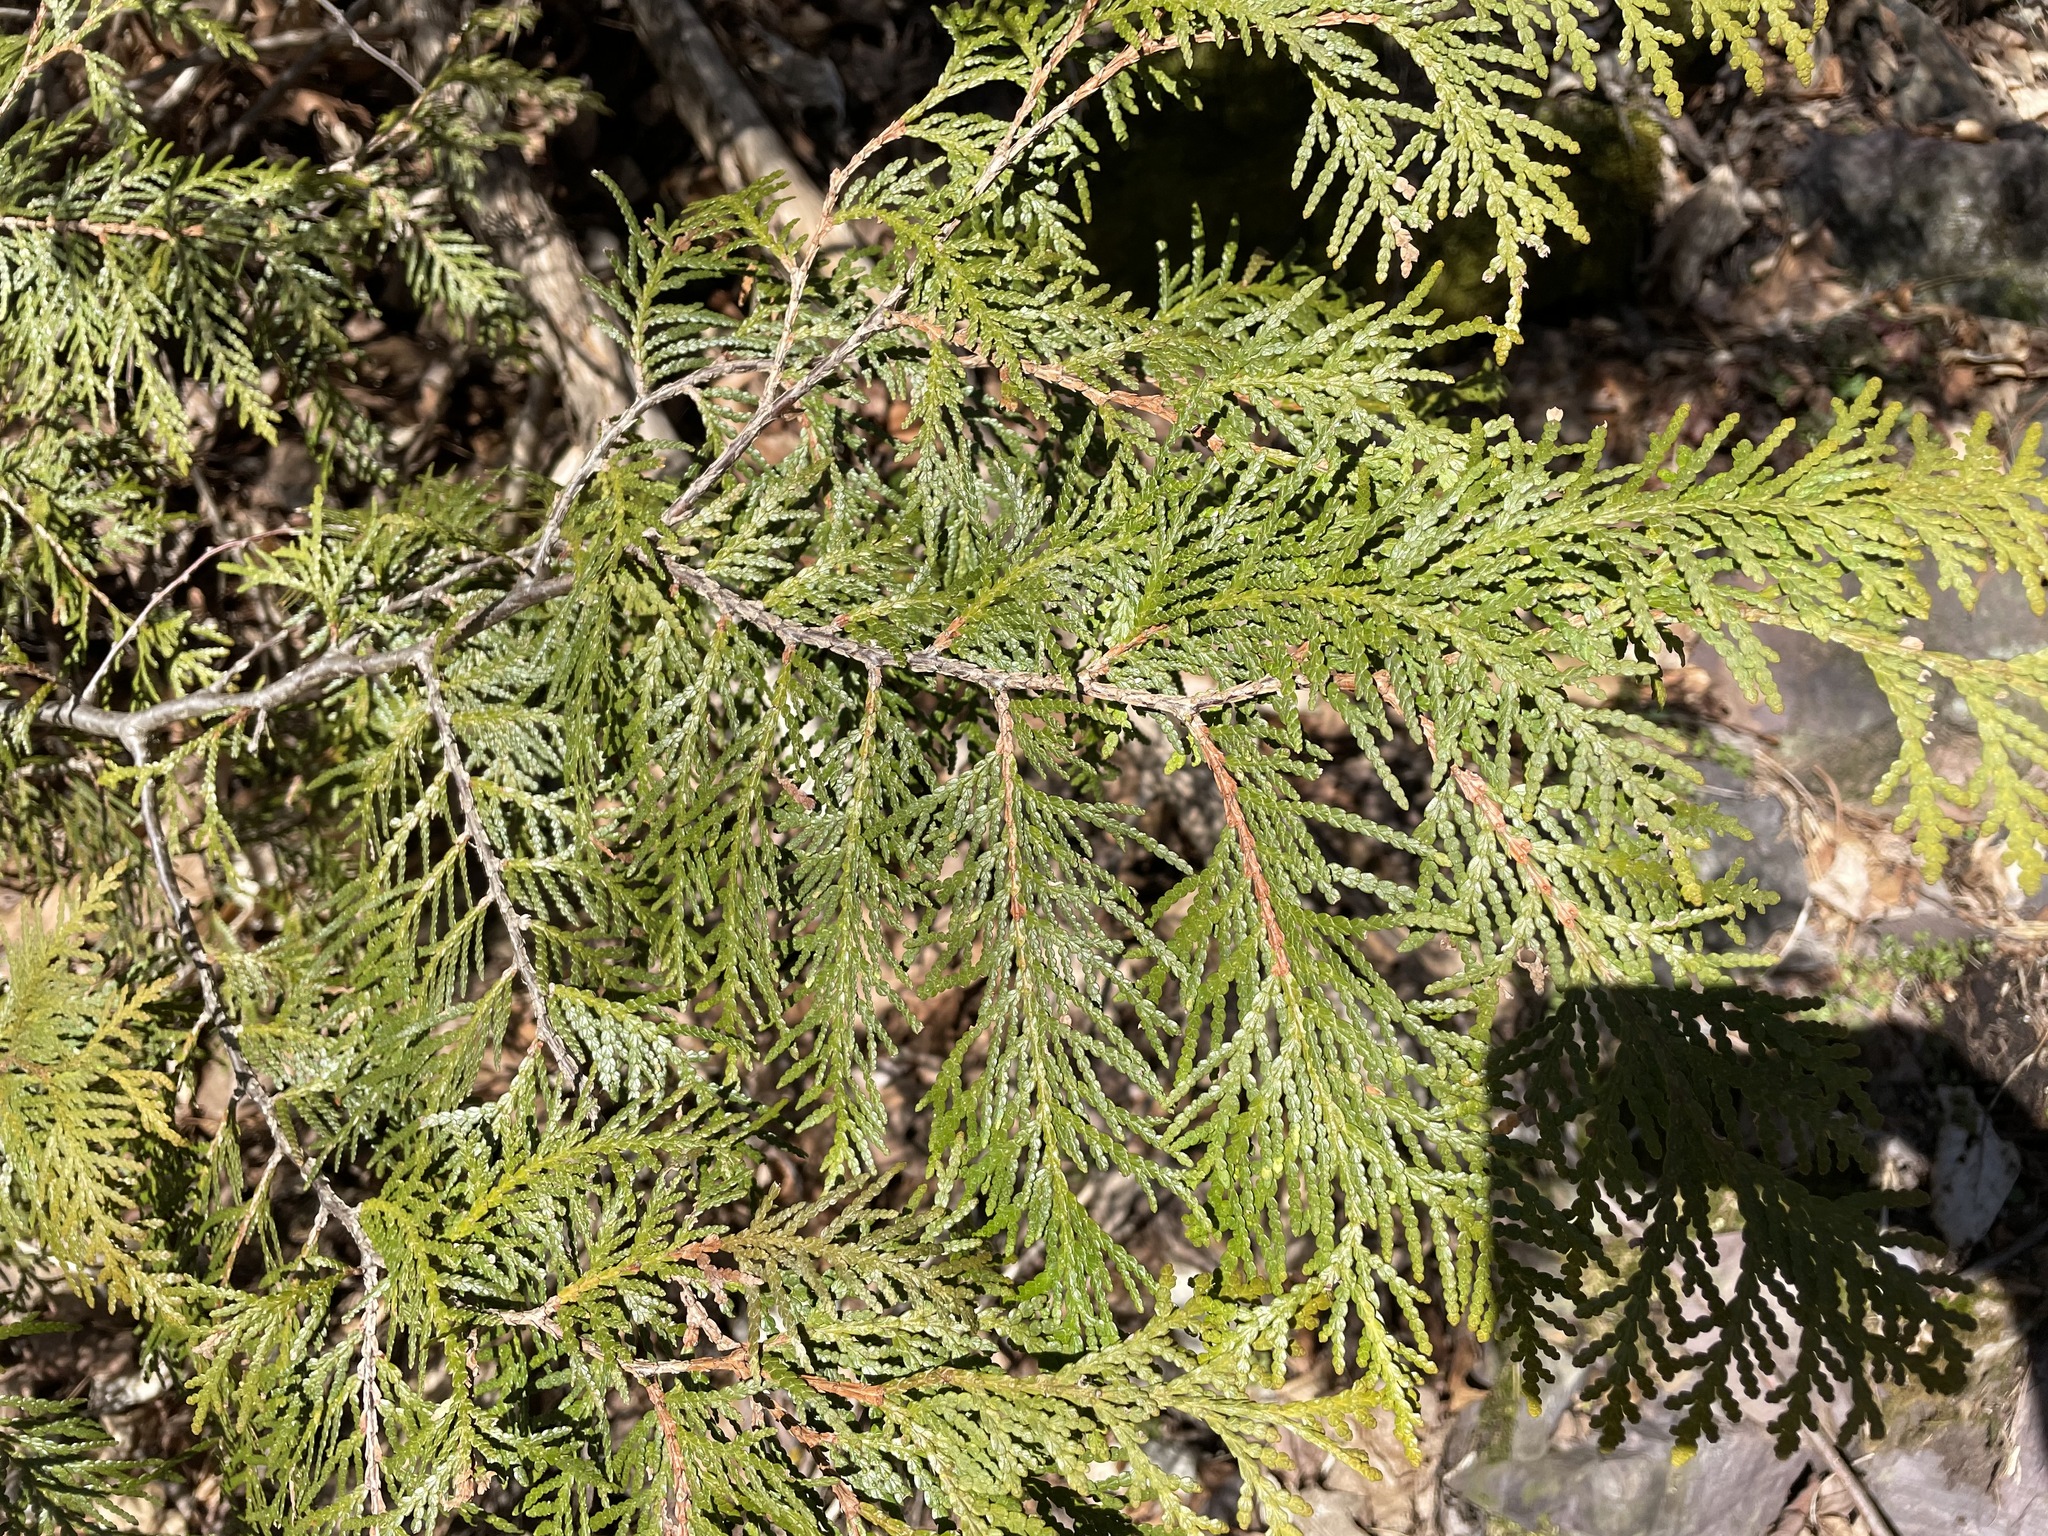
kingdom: Plantae
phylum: Tracheophyta
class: Pinopsida
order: Pinales
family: Cupressaceae
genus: Thuja
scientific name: Thuja occidentalis
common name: Northern white-cedar
